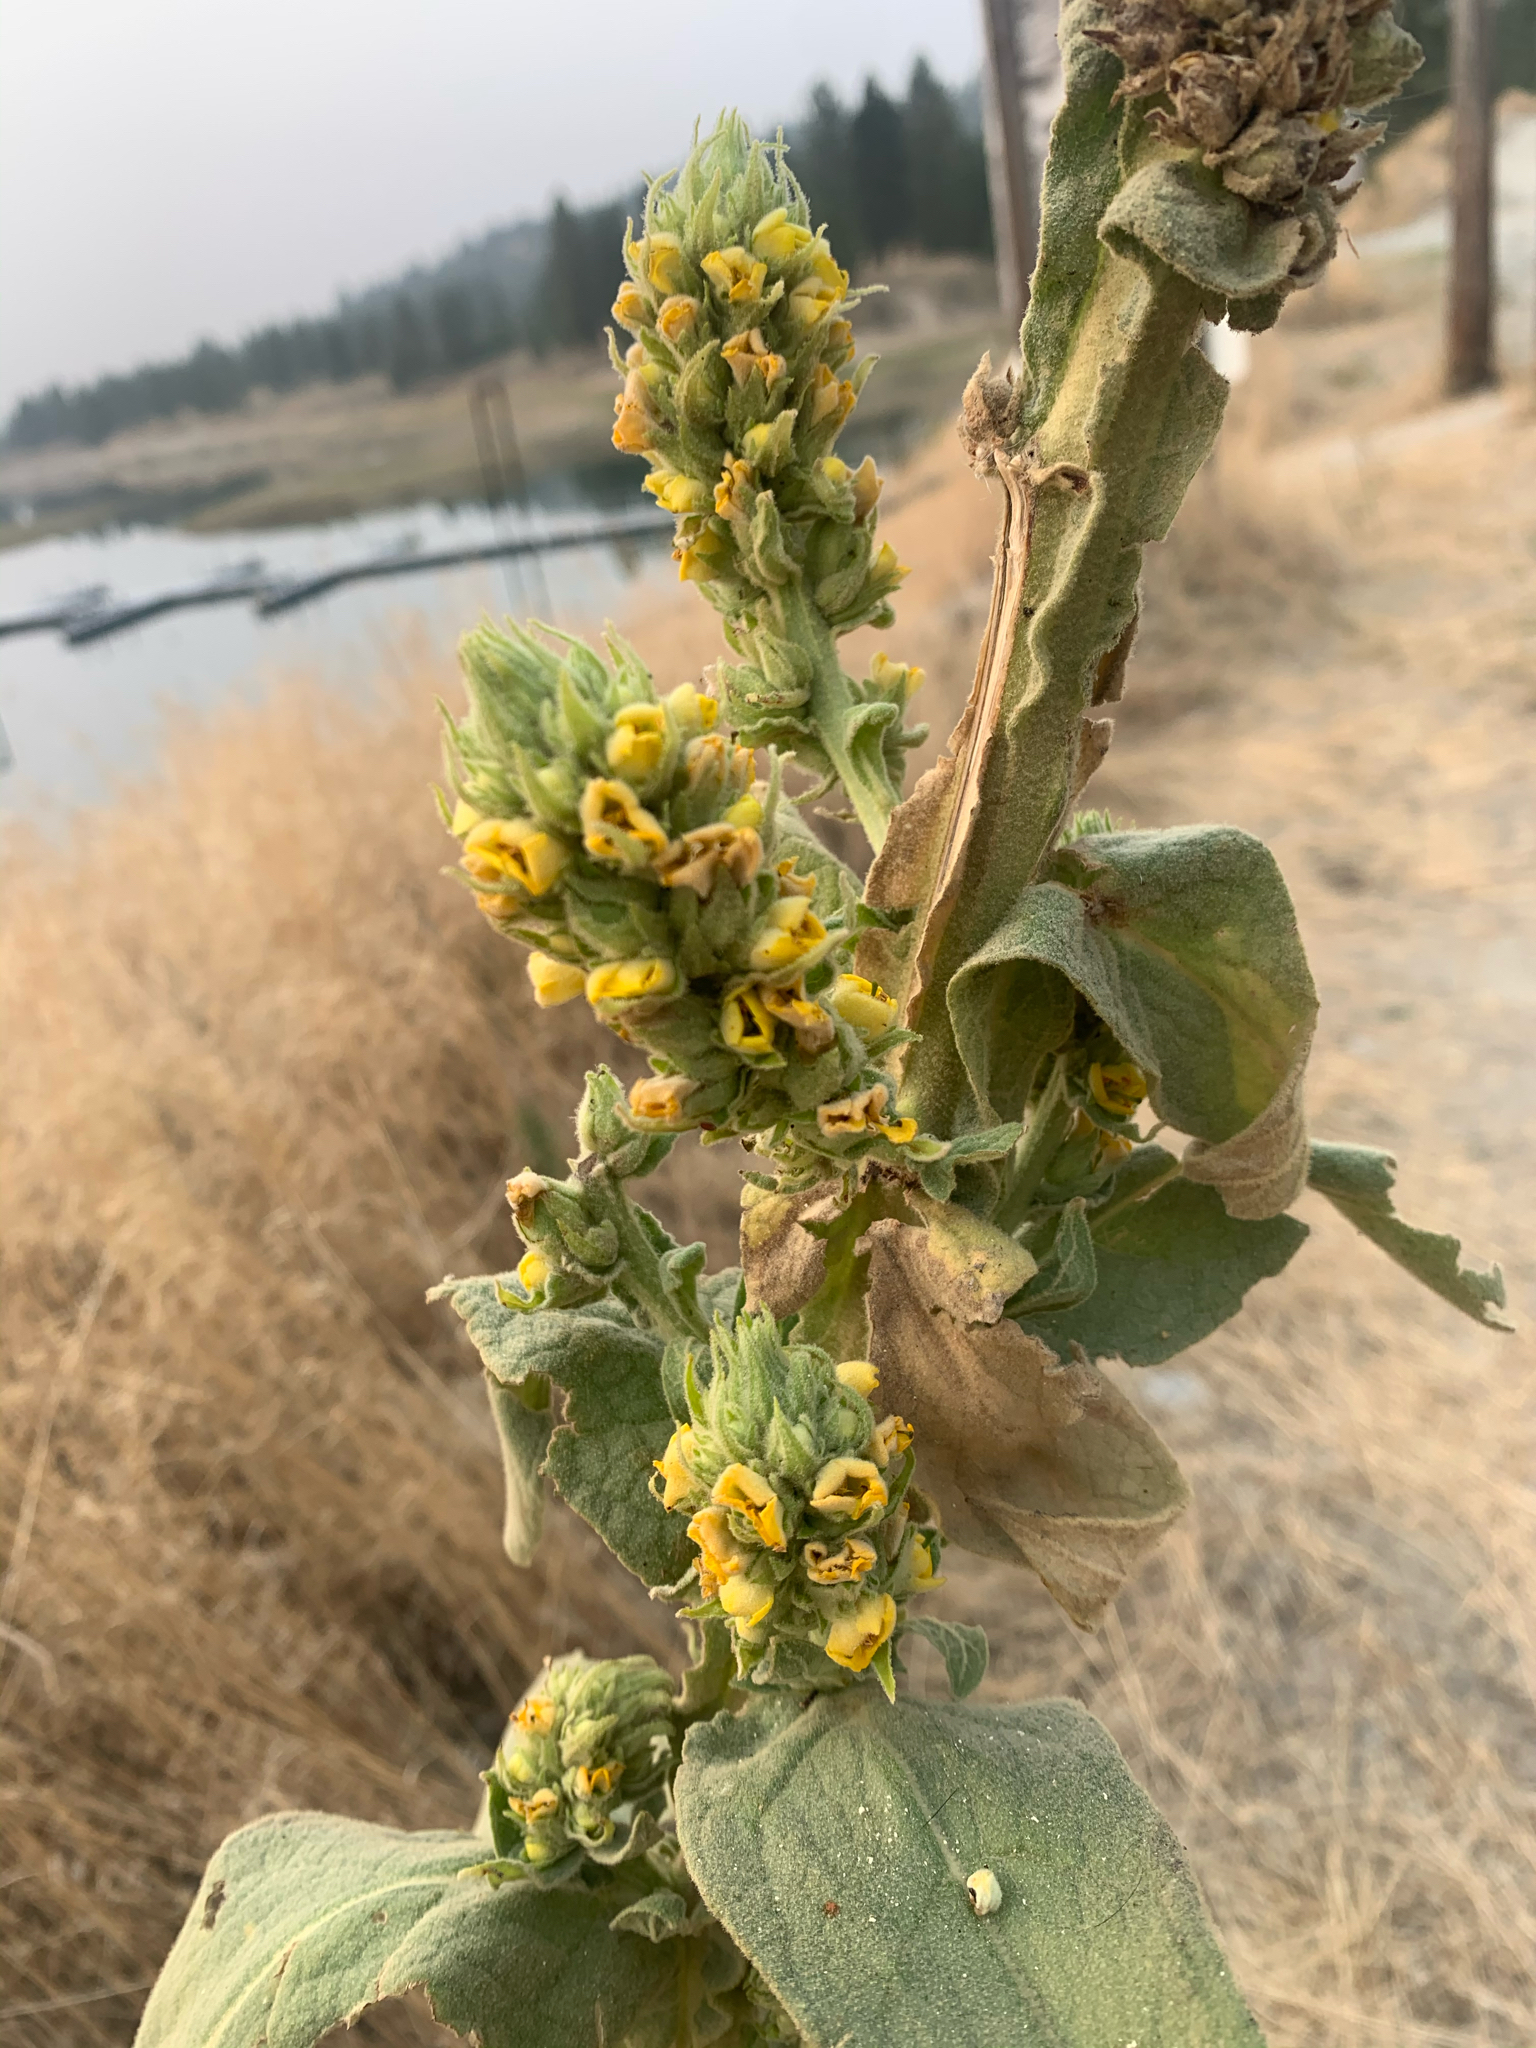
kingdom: Plantae
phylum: Tracheophyta
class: Magnoliopsida
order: Lamiales
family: Scrophulariaceae
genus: Verbascum
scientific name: Verbascum thapsus
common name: Common mullein
